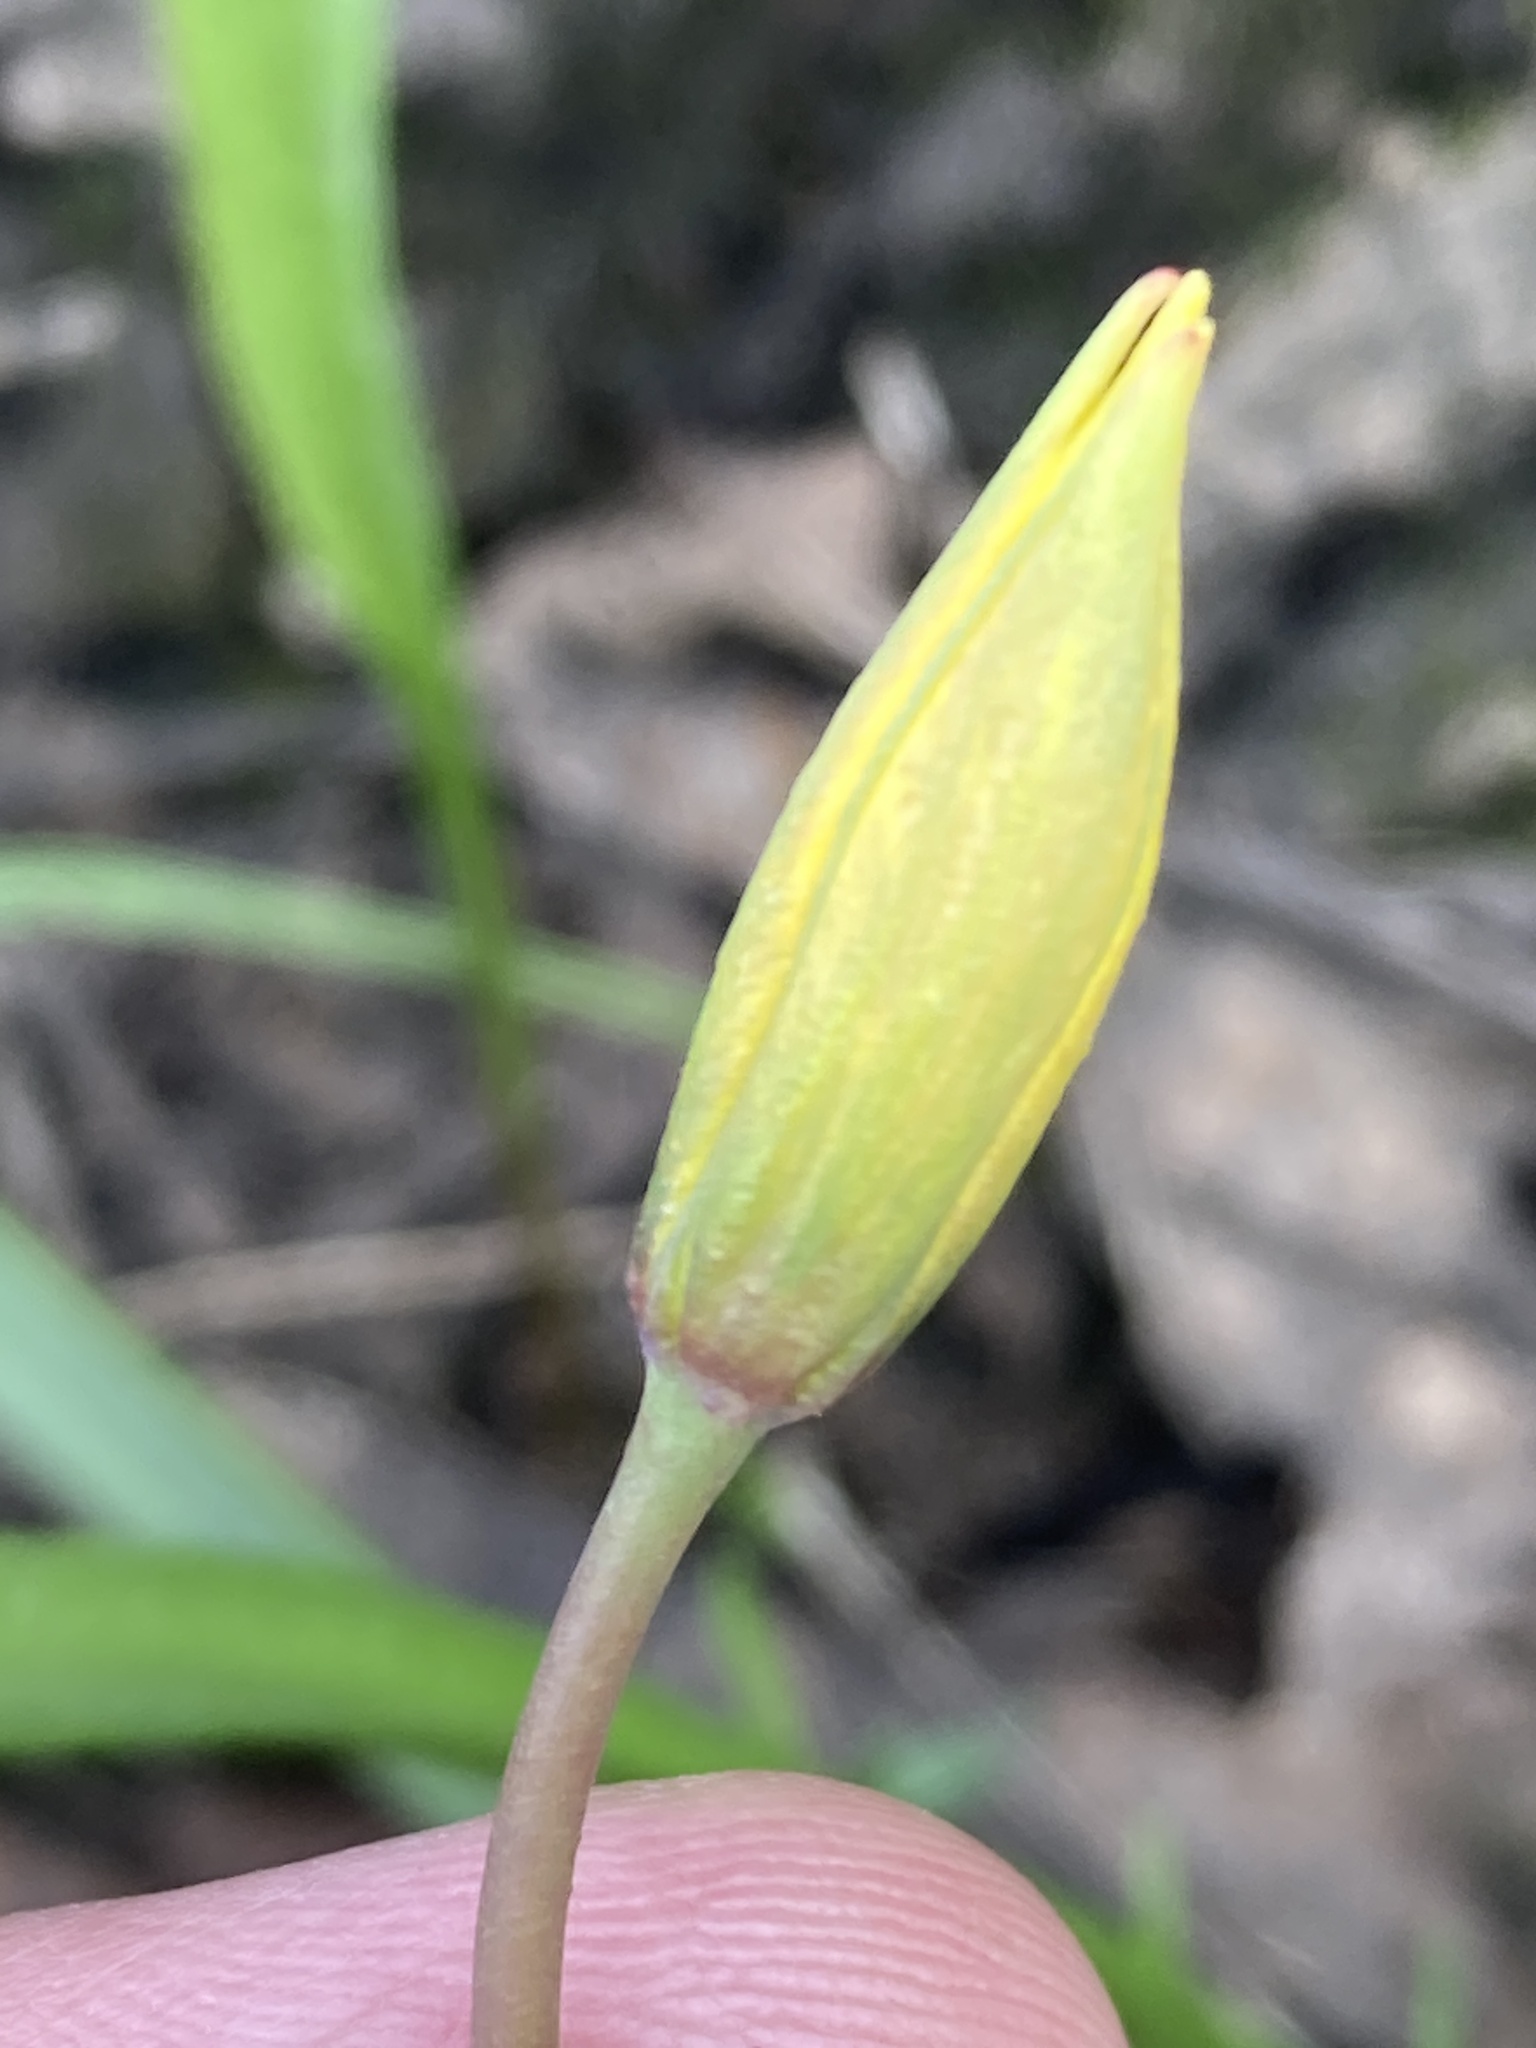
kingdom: Plantae
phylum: Tracheophyta
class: Liliopsida
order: Liliales
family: Liliaceae
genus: Tulipa
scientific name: Tulipa sylvestris
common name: Wild tulip
